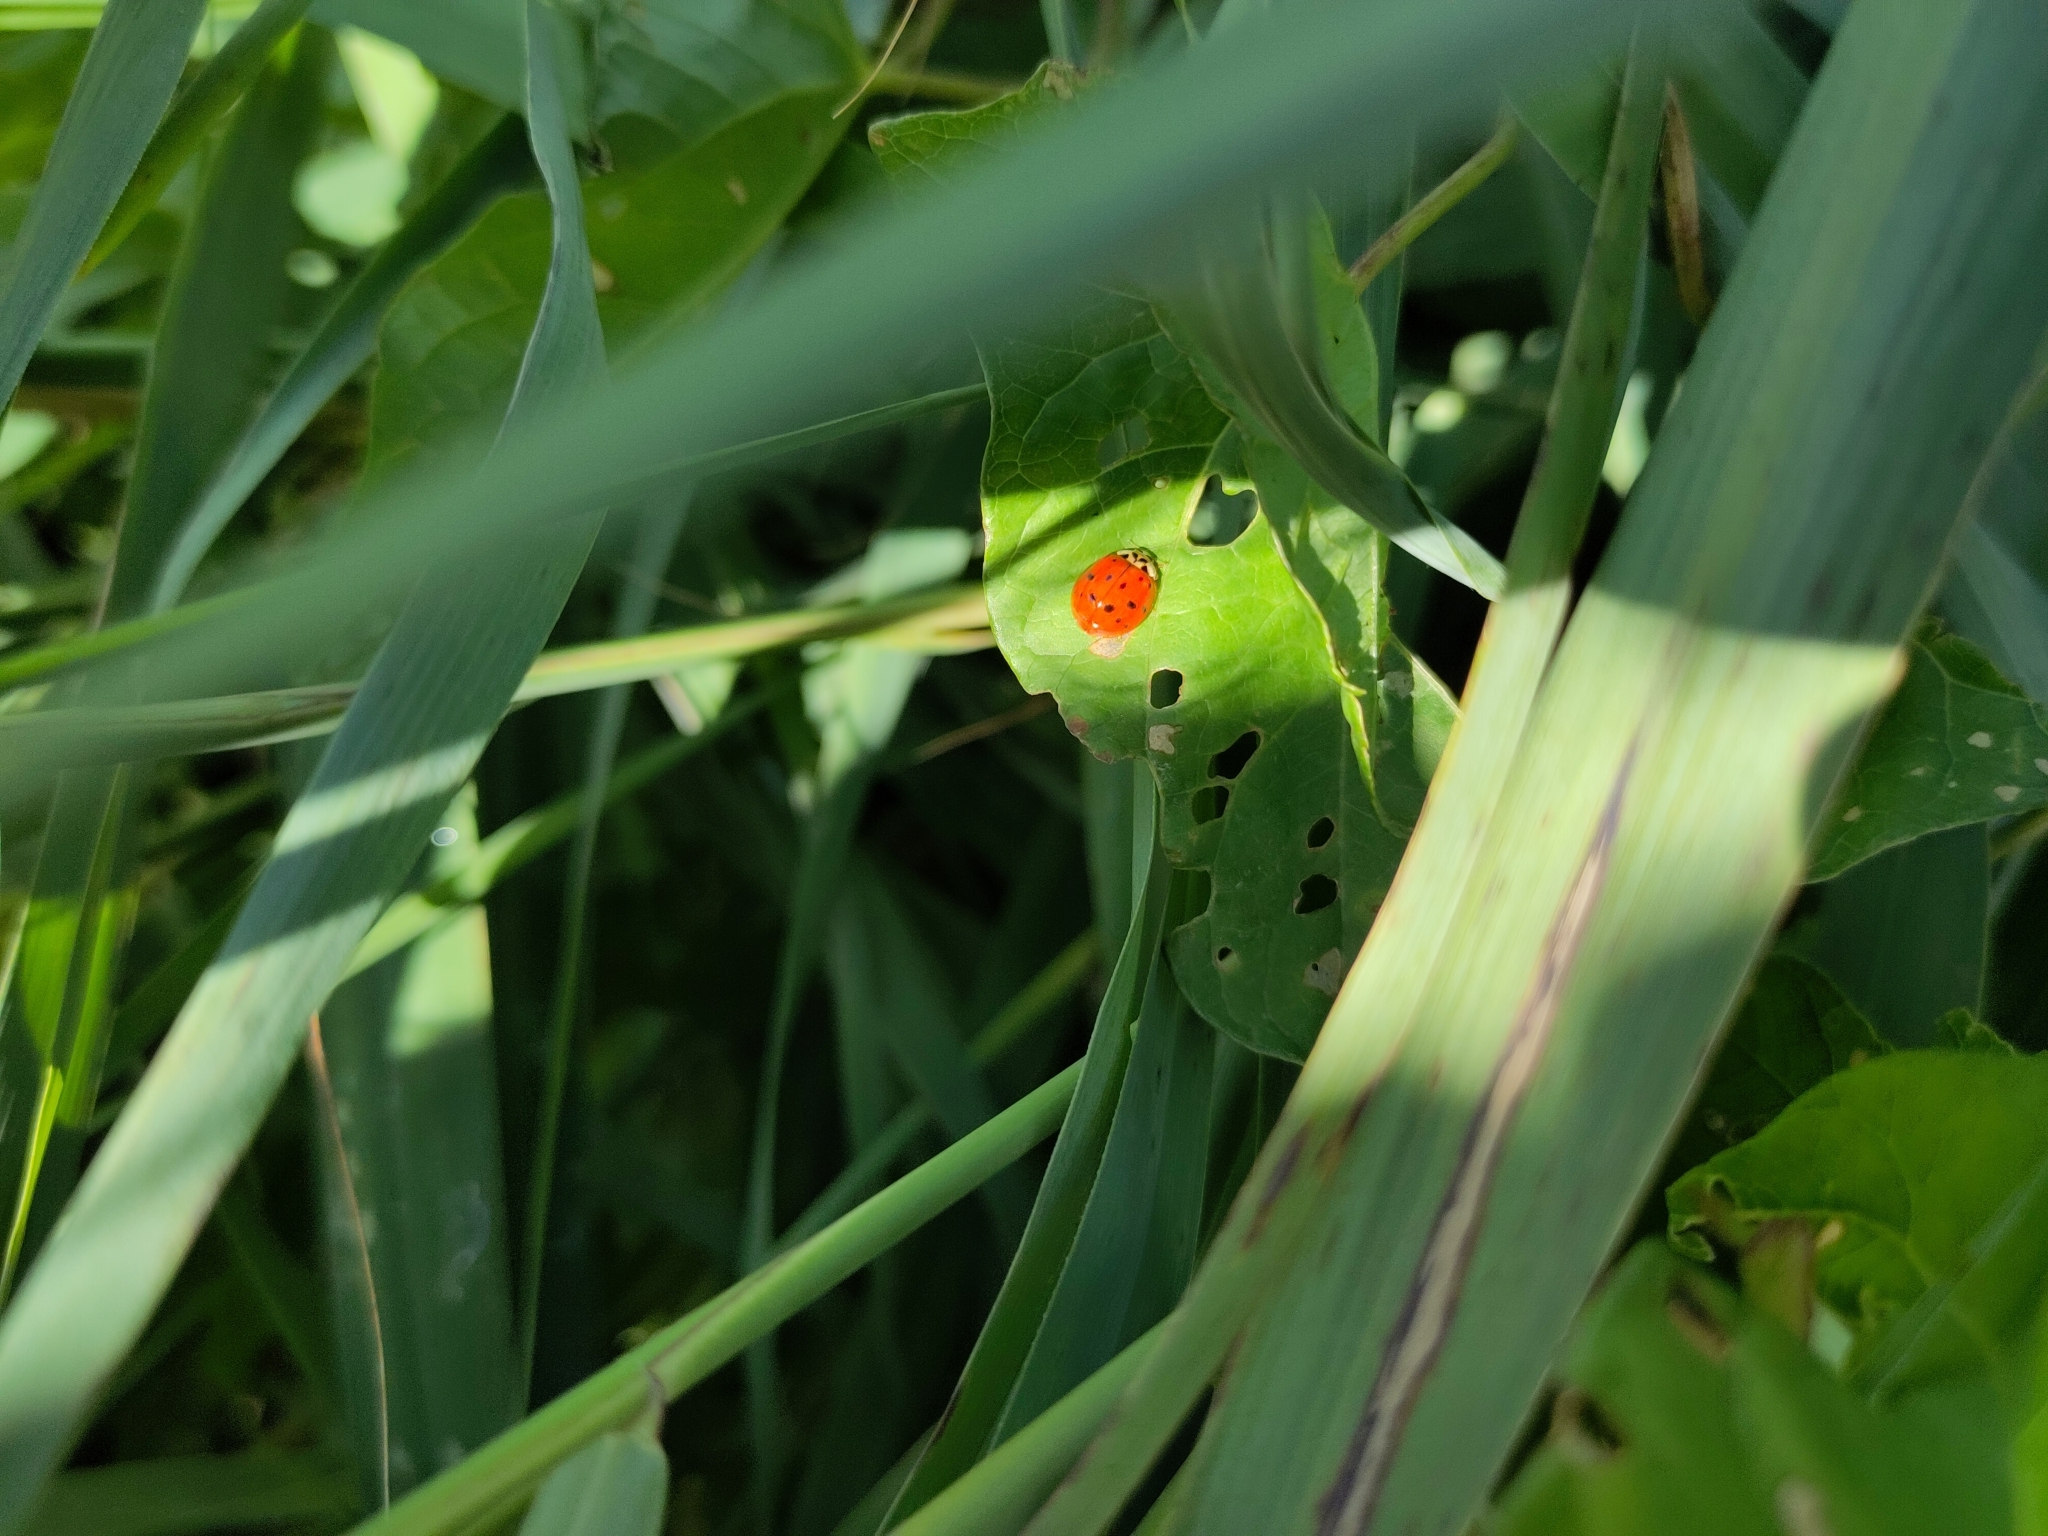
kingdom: Animalia
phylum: Arthropoda
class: Insecta
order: Coleoptera
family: Coccinellidae
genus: Harmonia
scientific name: Harmonia axyridis
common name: Harlequin ladybird
